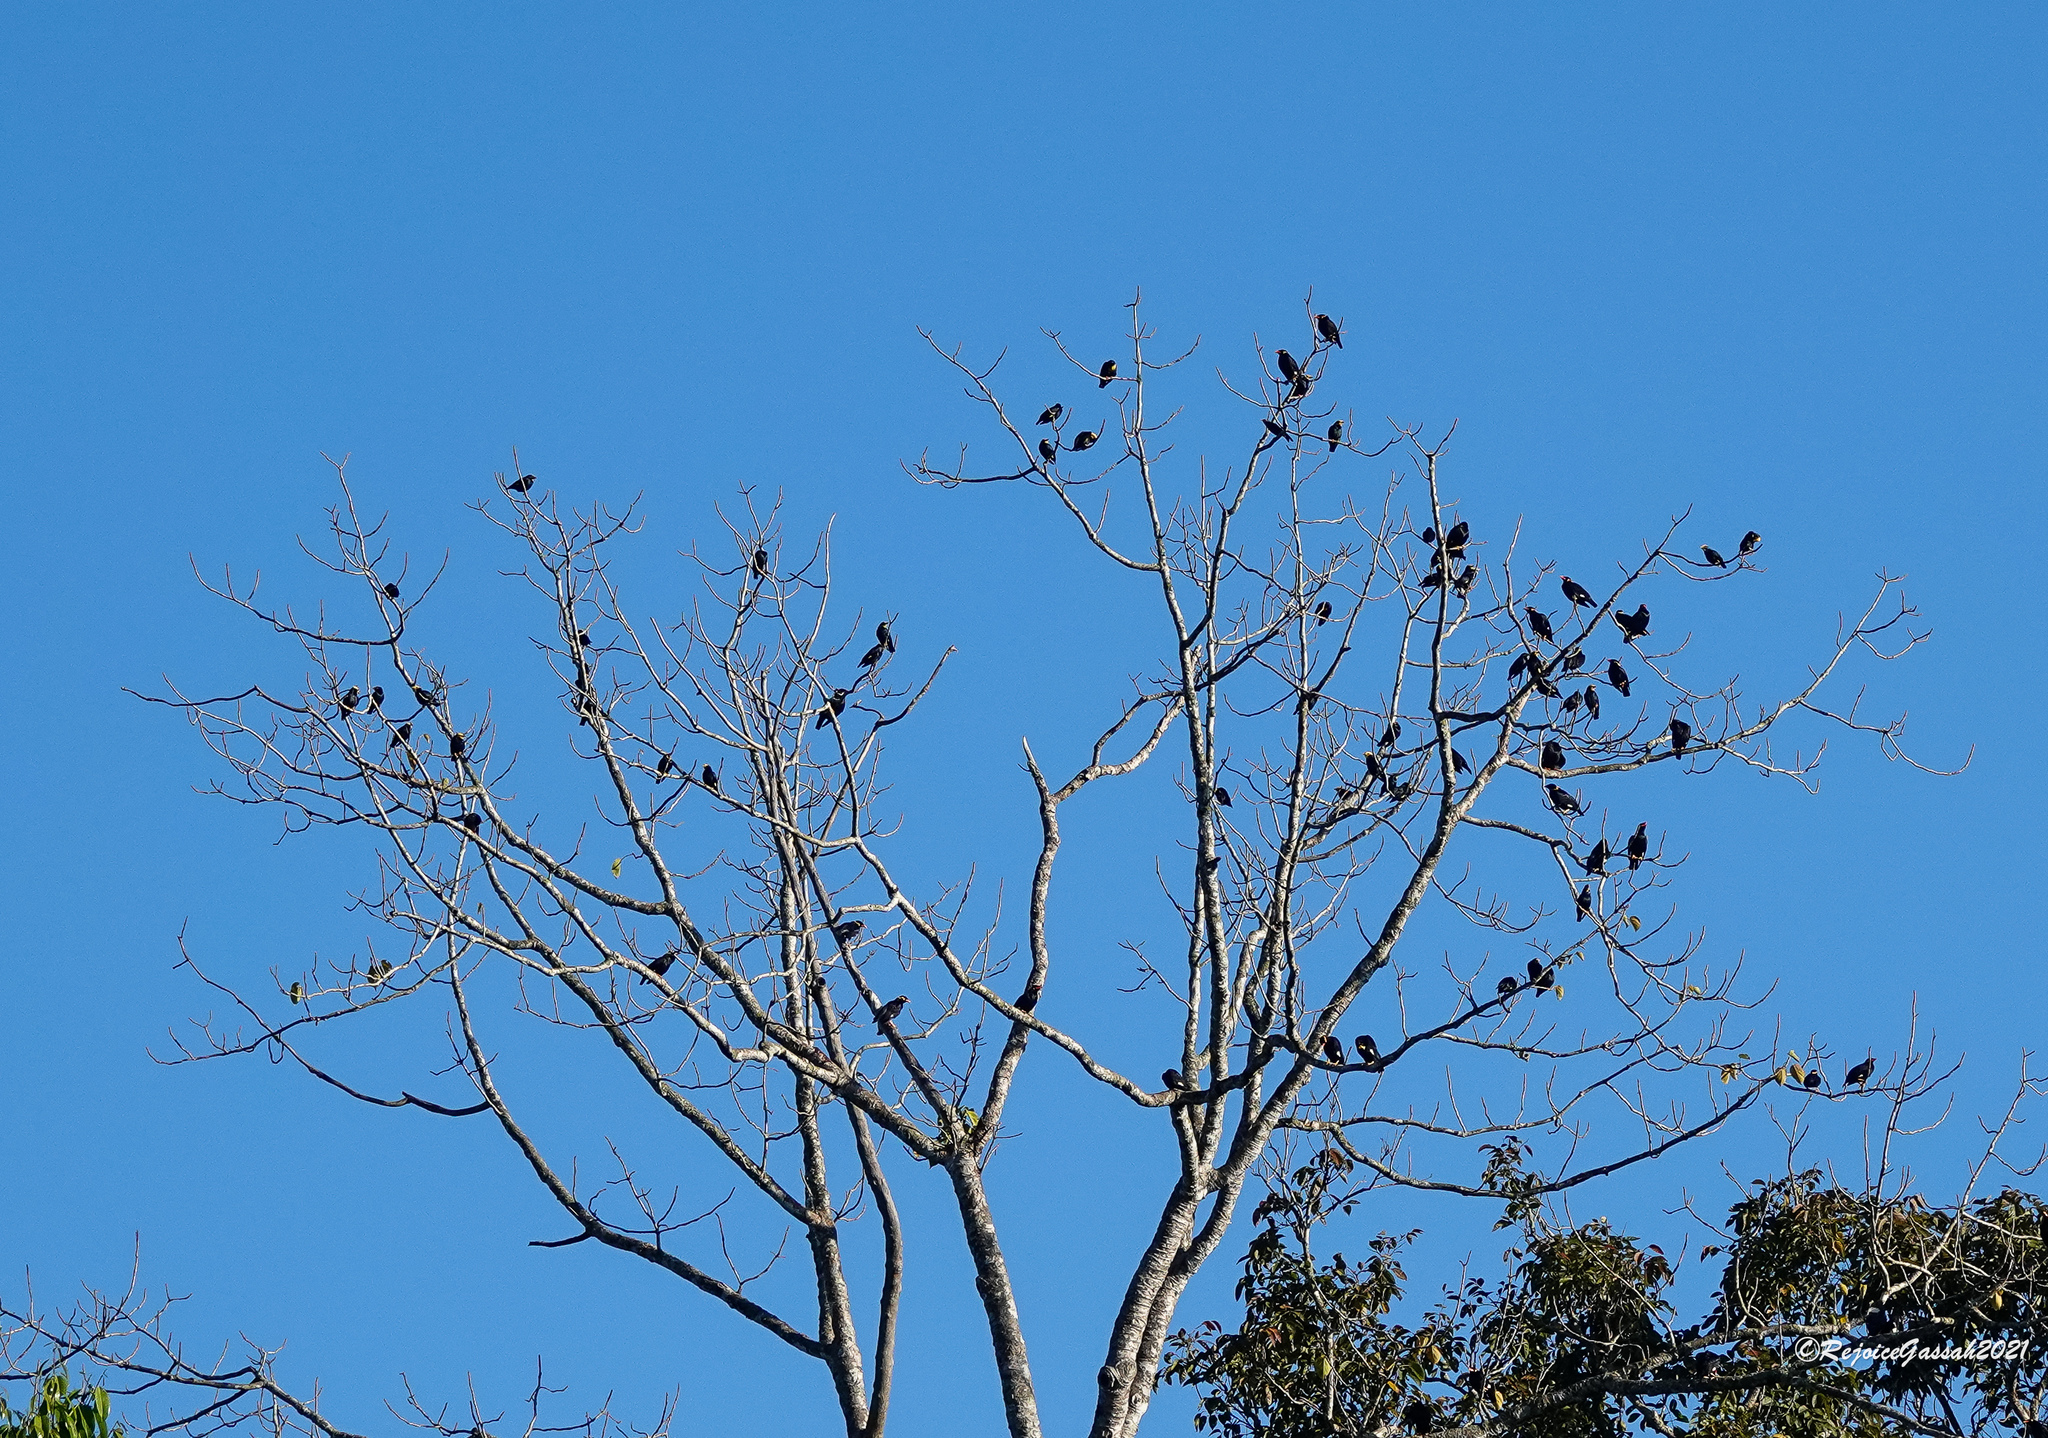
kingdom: Animalia
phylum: Chordata
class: Aves
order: Passeriformes
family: Sturnidae
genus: Ampeliceps
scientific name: Ampeliceps coronatus
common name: Golden-crested myna
